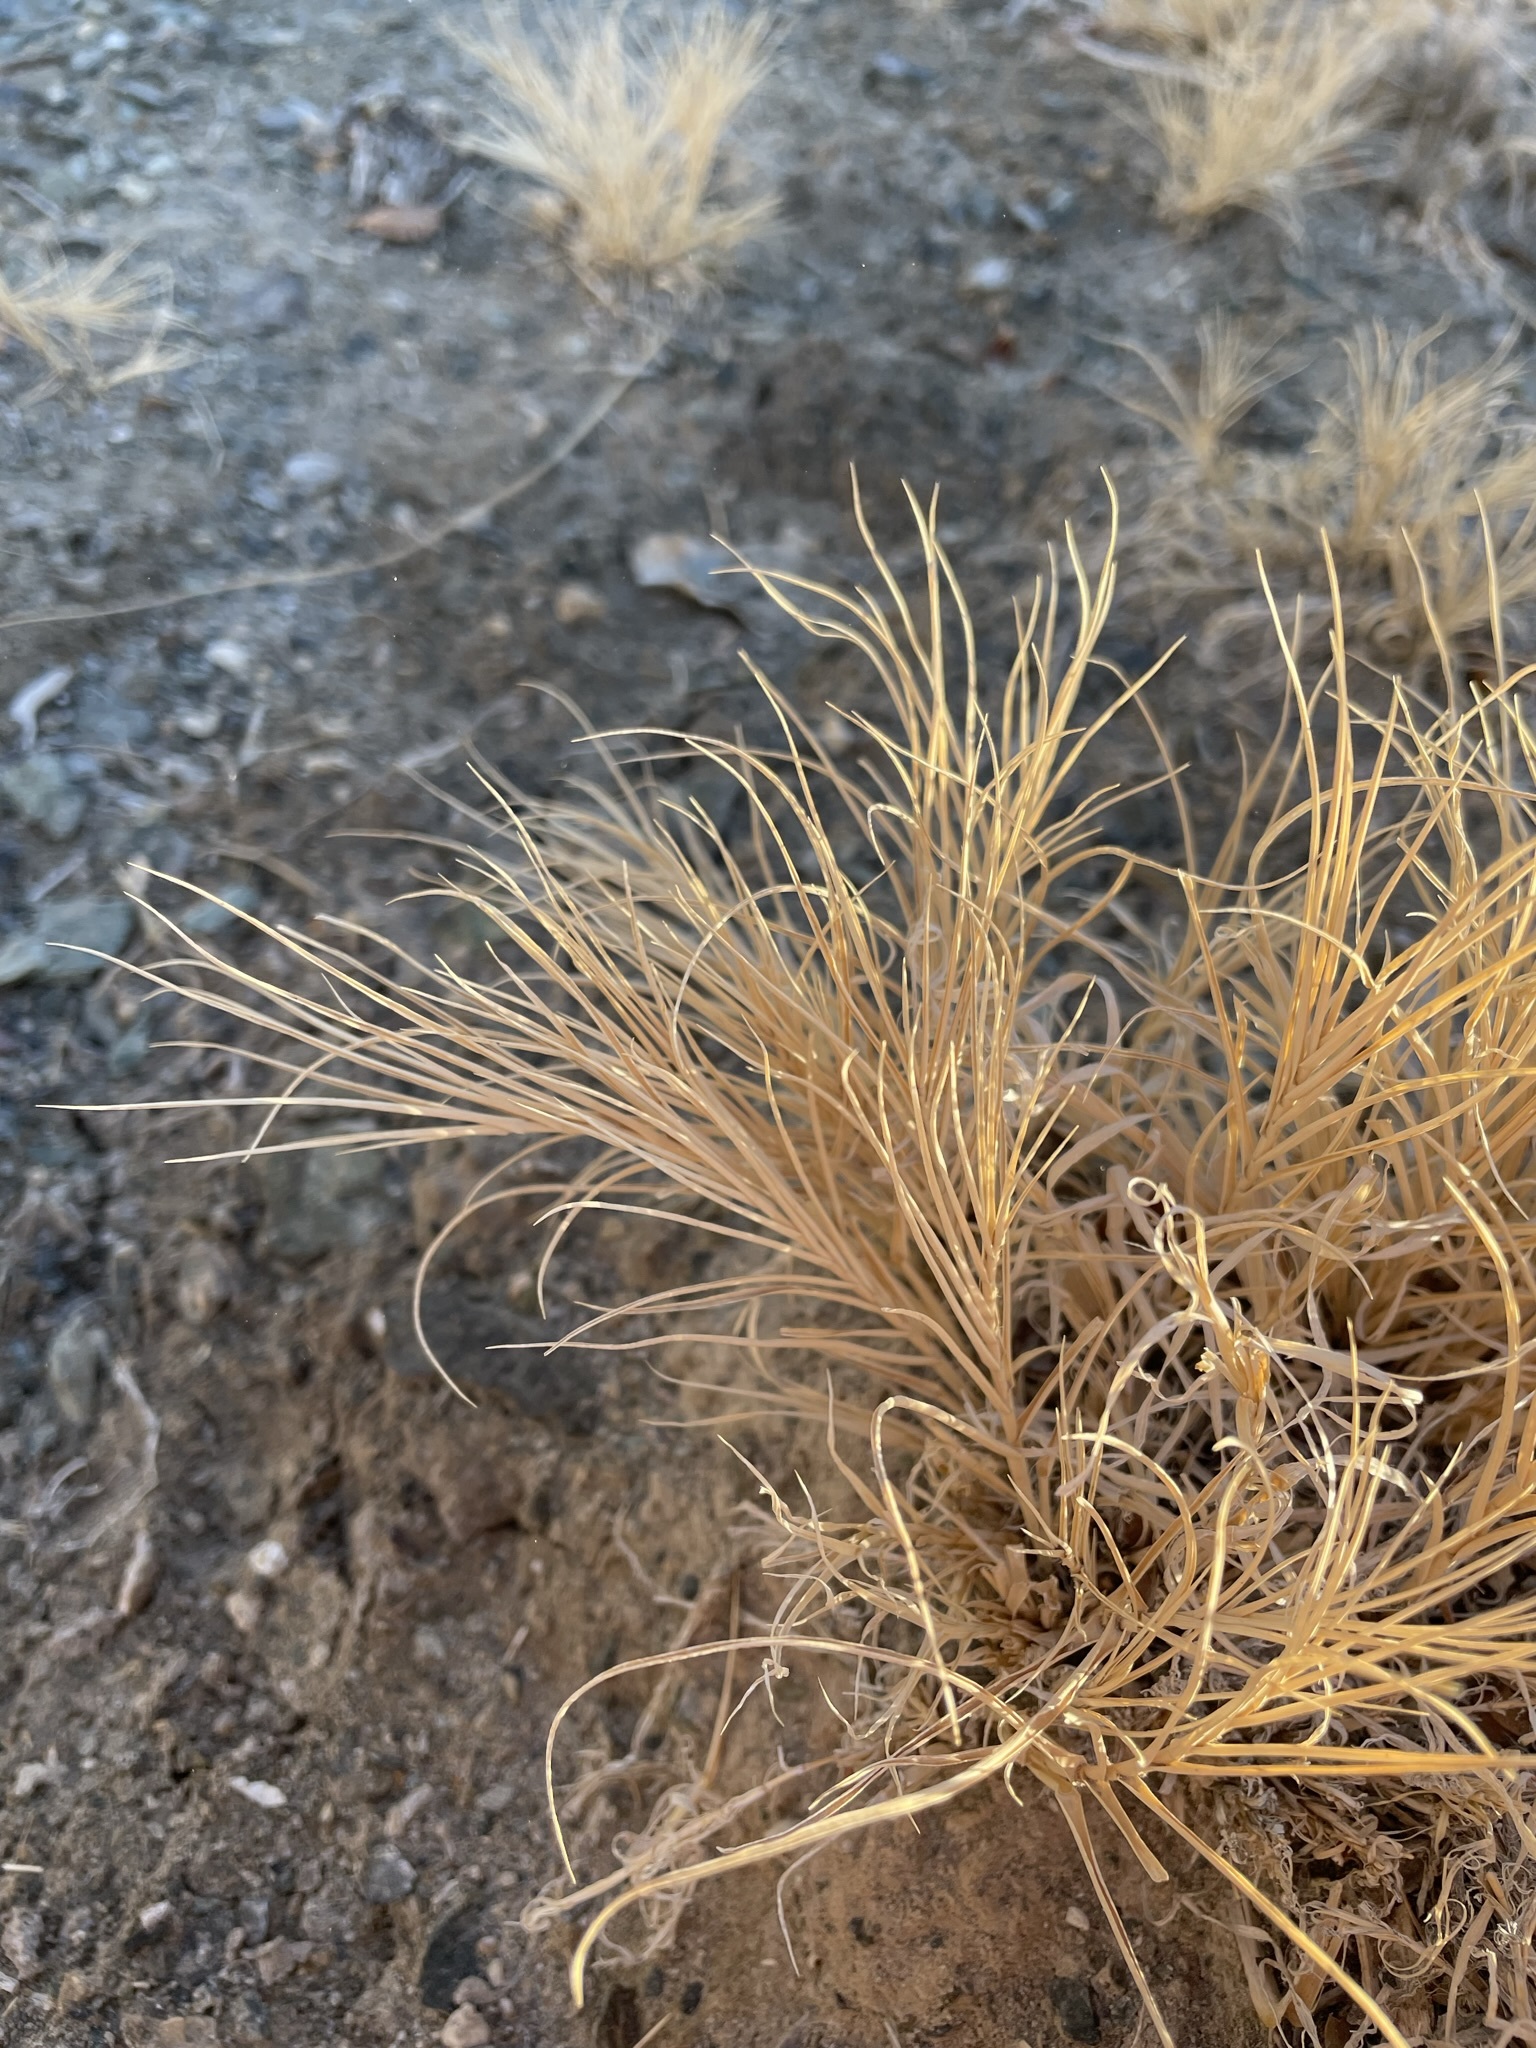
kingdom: Plantae
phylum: Tracheophyta
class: Liliopsida
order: Poales
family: Poaceae
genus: Distichlis
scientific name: Distichlis spicata
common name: Saltgrass
